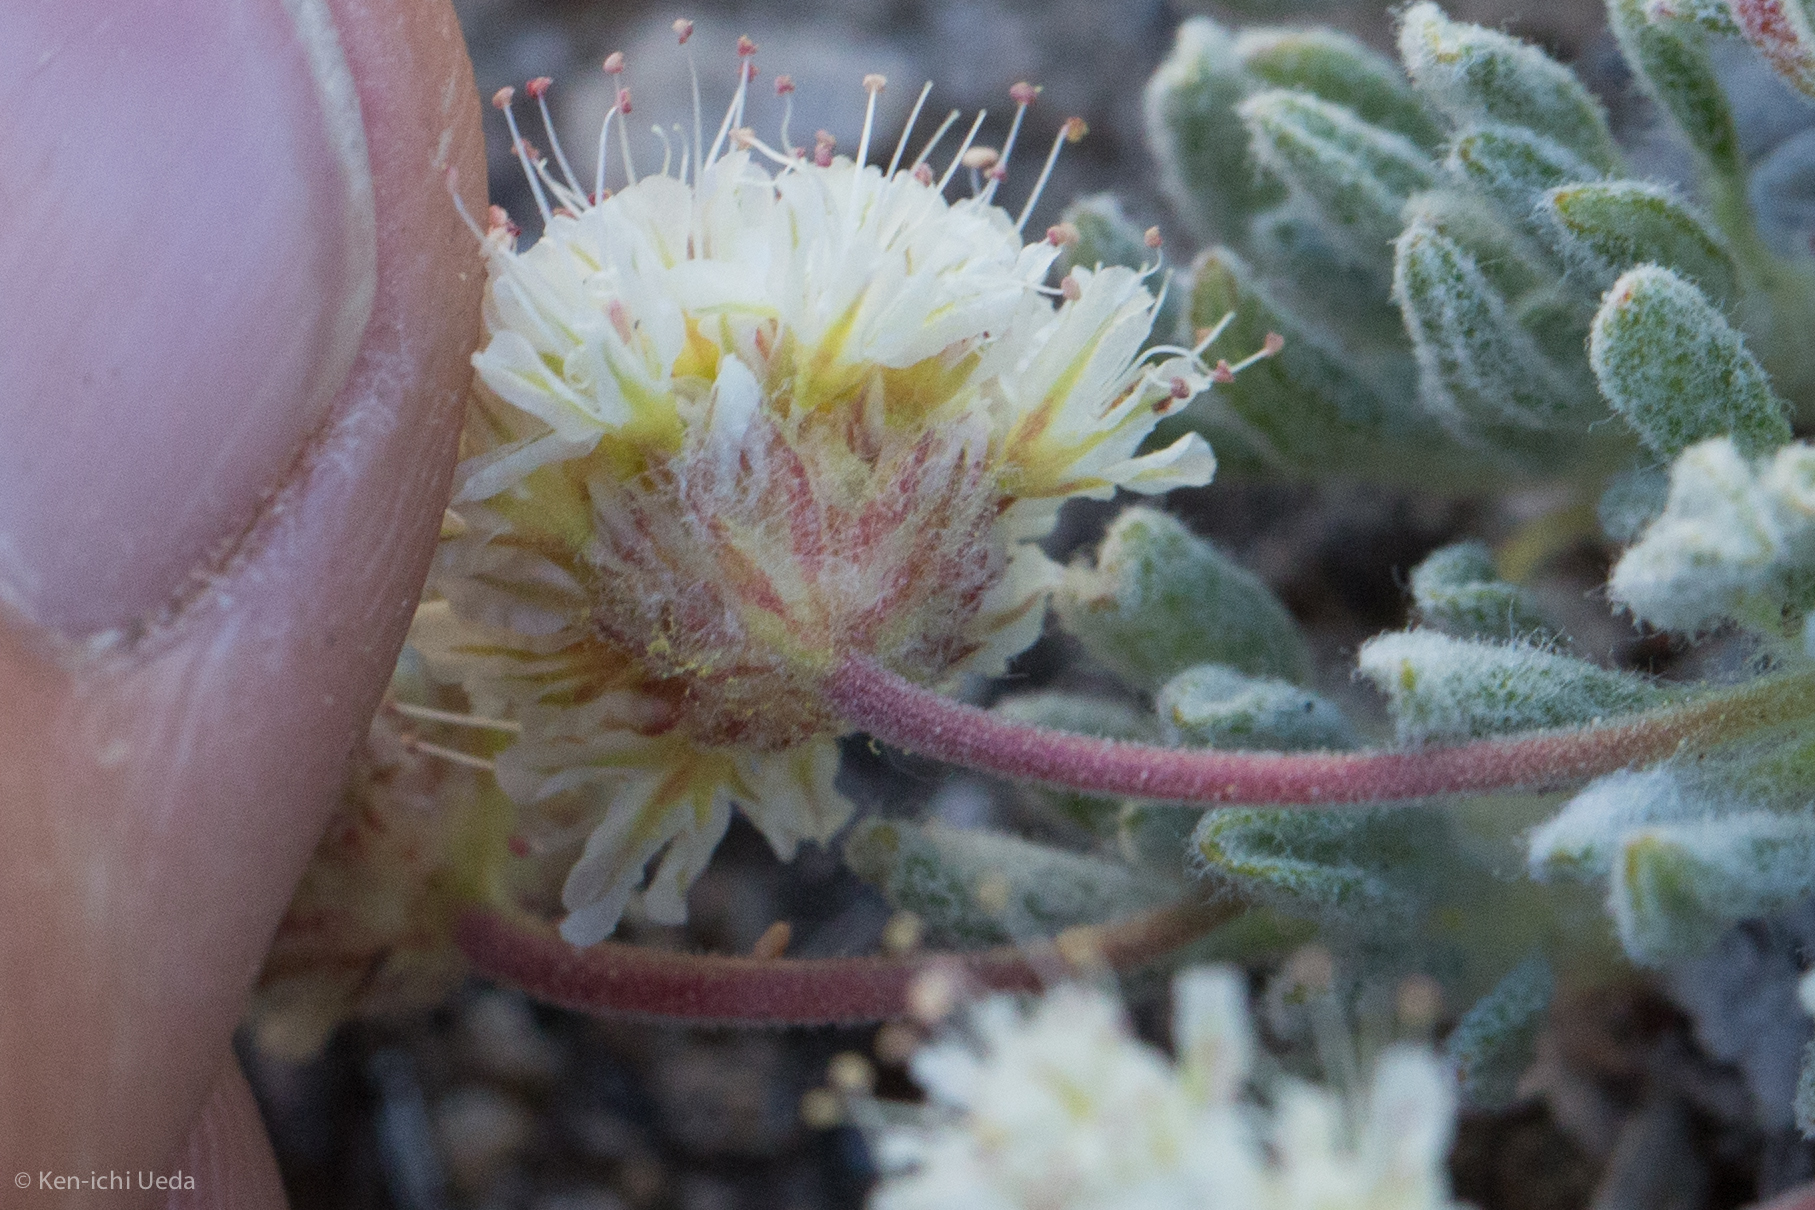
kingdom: Plantae
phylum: Tracheophyta
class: Magnoliopsida
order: Caryophyllales
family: Polygonaceae
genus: Eriogonum
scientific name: Eriogonum gracilipes
